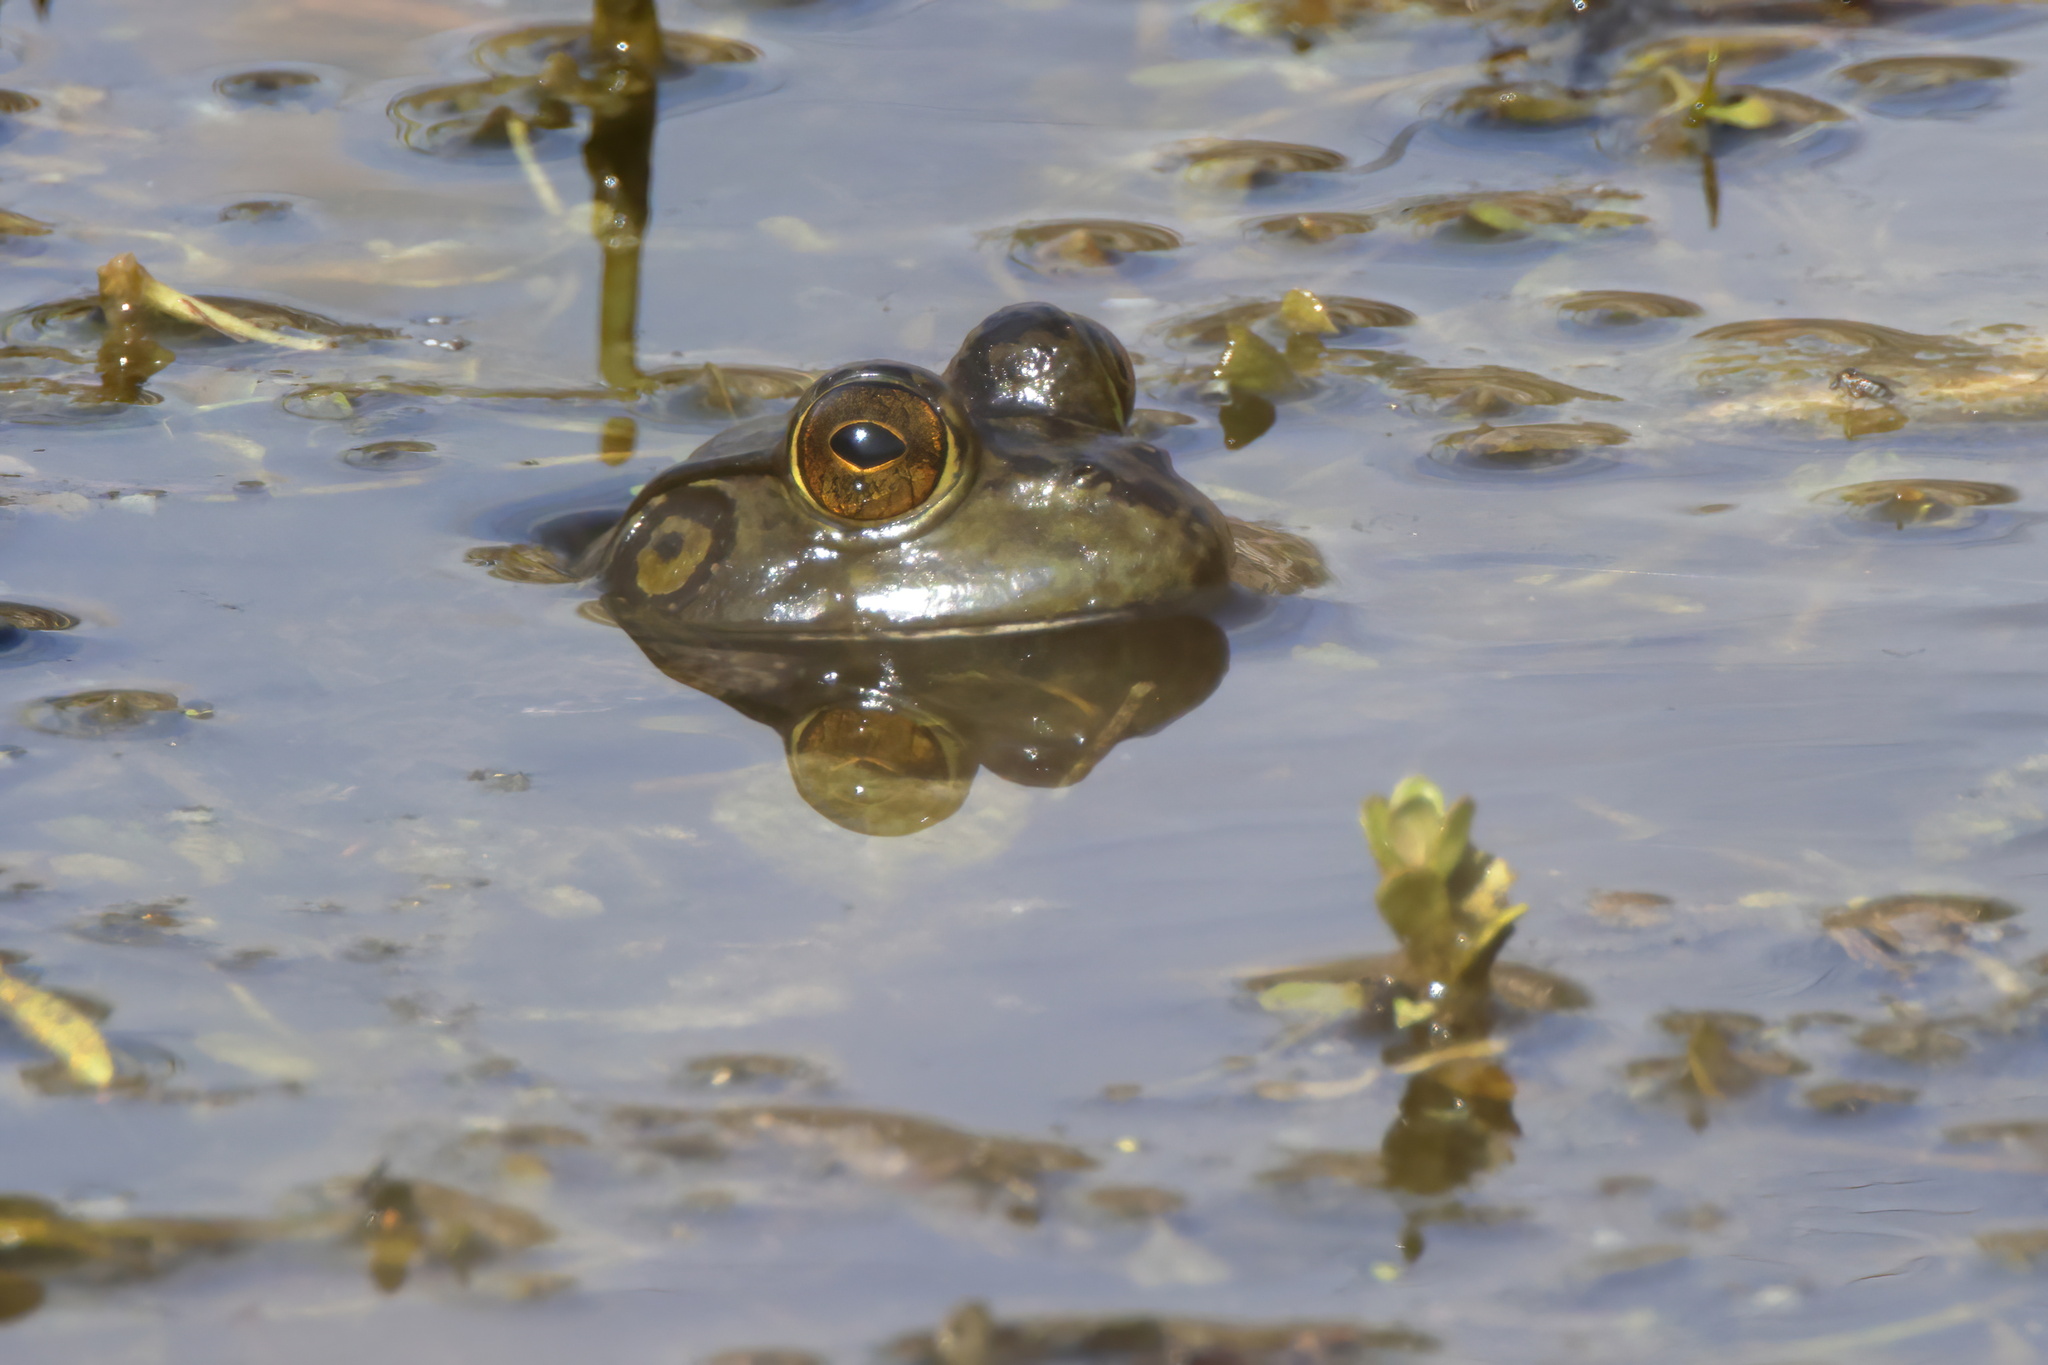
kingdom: Animalia
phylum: Chordata
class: Amphibia
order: Anura
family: Ranidae
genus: Lithobates
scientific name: Lithobates catesbeianus
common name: American bullfrog
